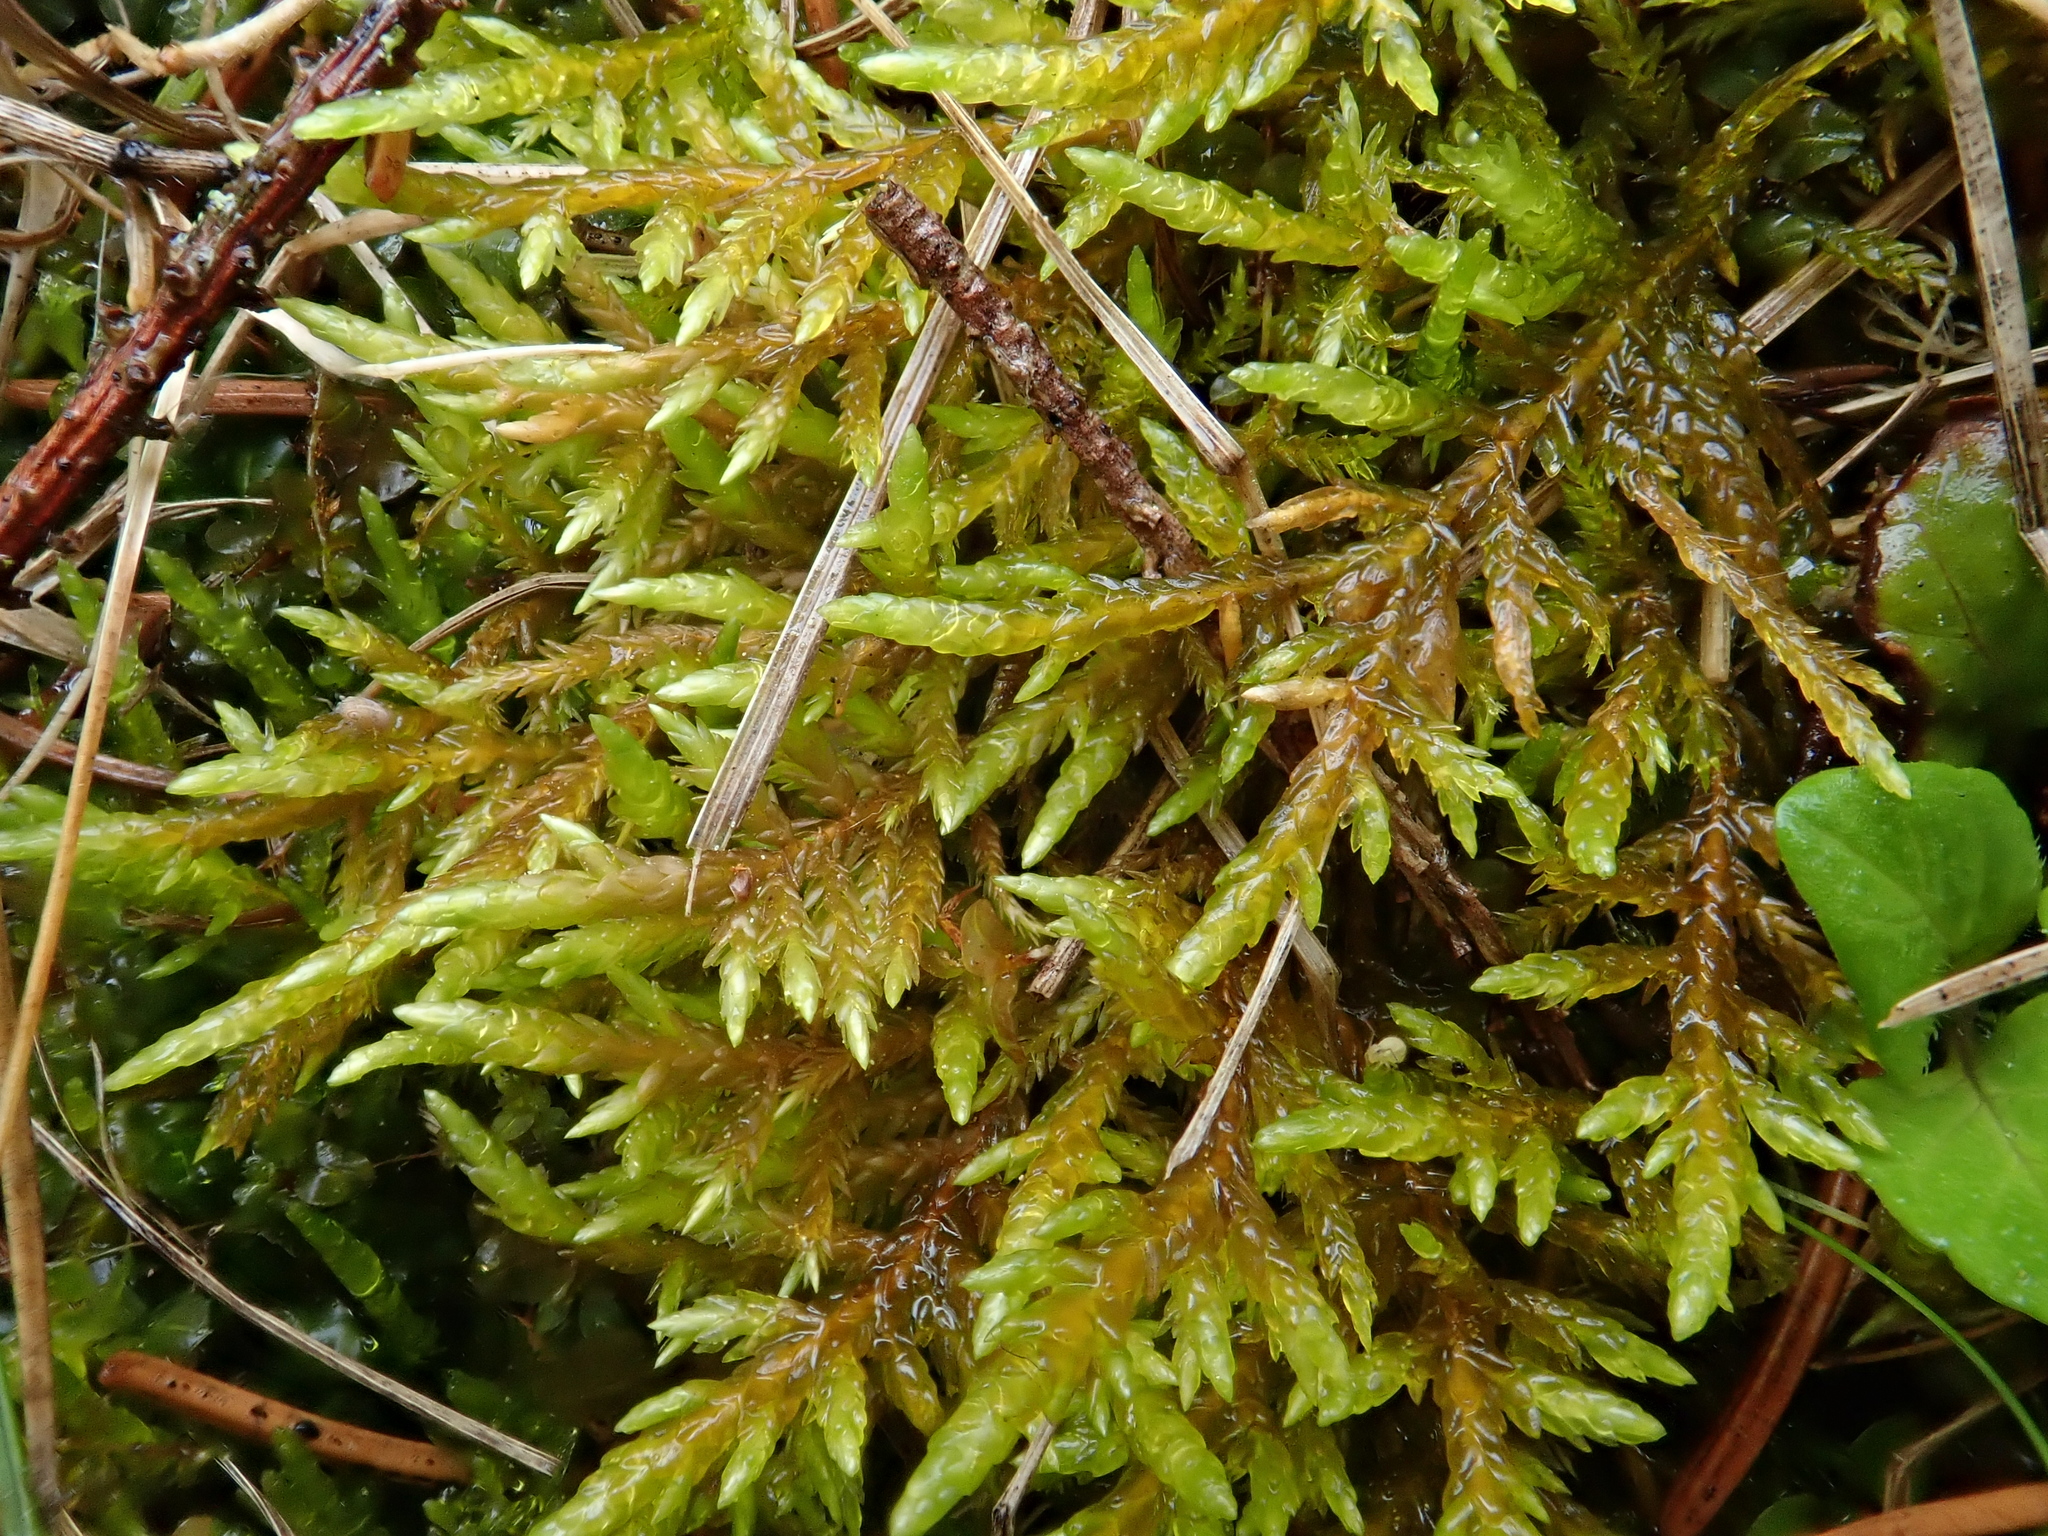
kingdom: Plantae
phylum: Bryophyta
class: Bryopsida
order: Hypnales
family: Entodontaceae
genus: Entodon
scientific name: Entodon concinnus
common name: Montagne's cylinder-moss
